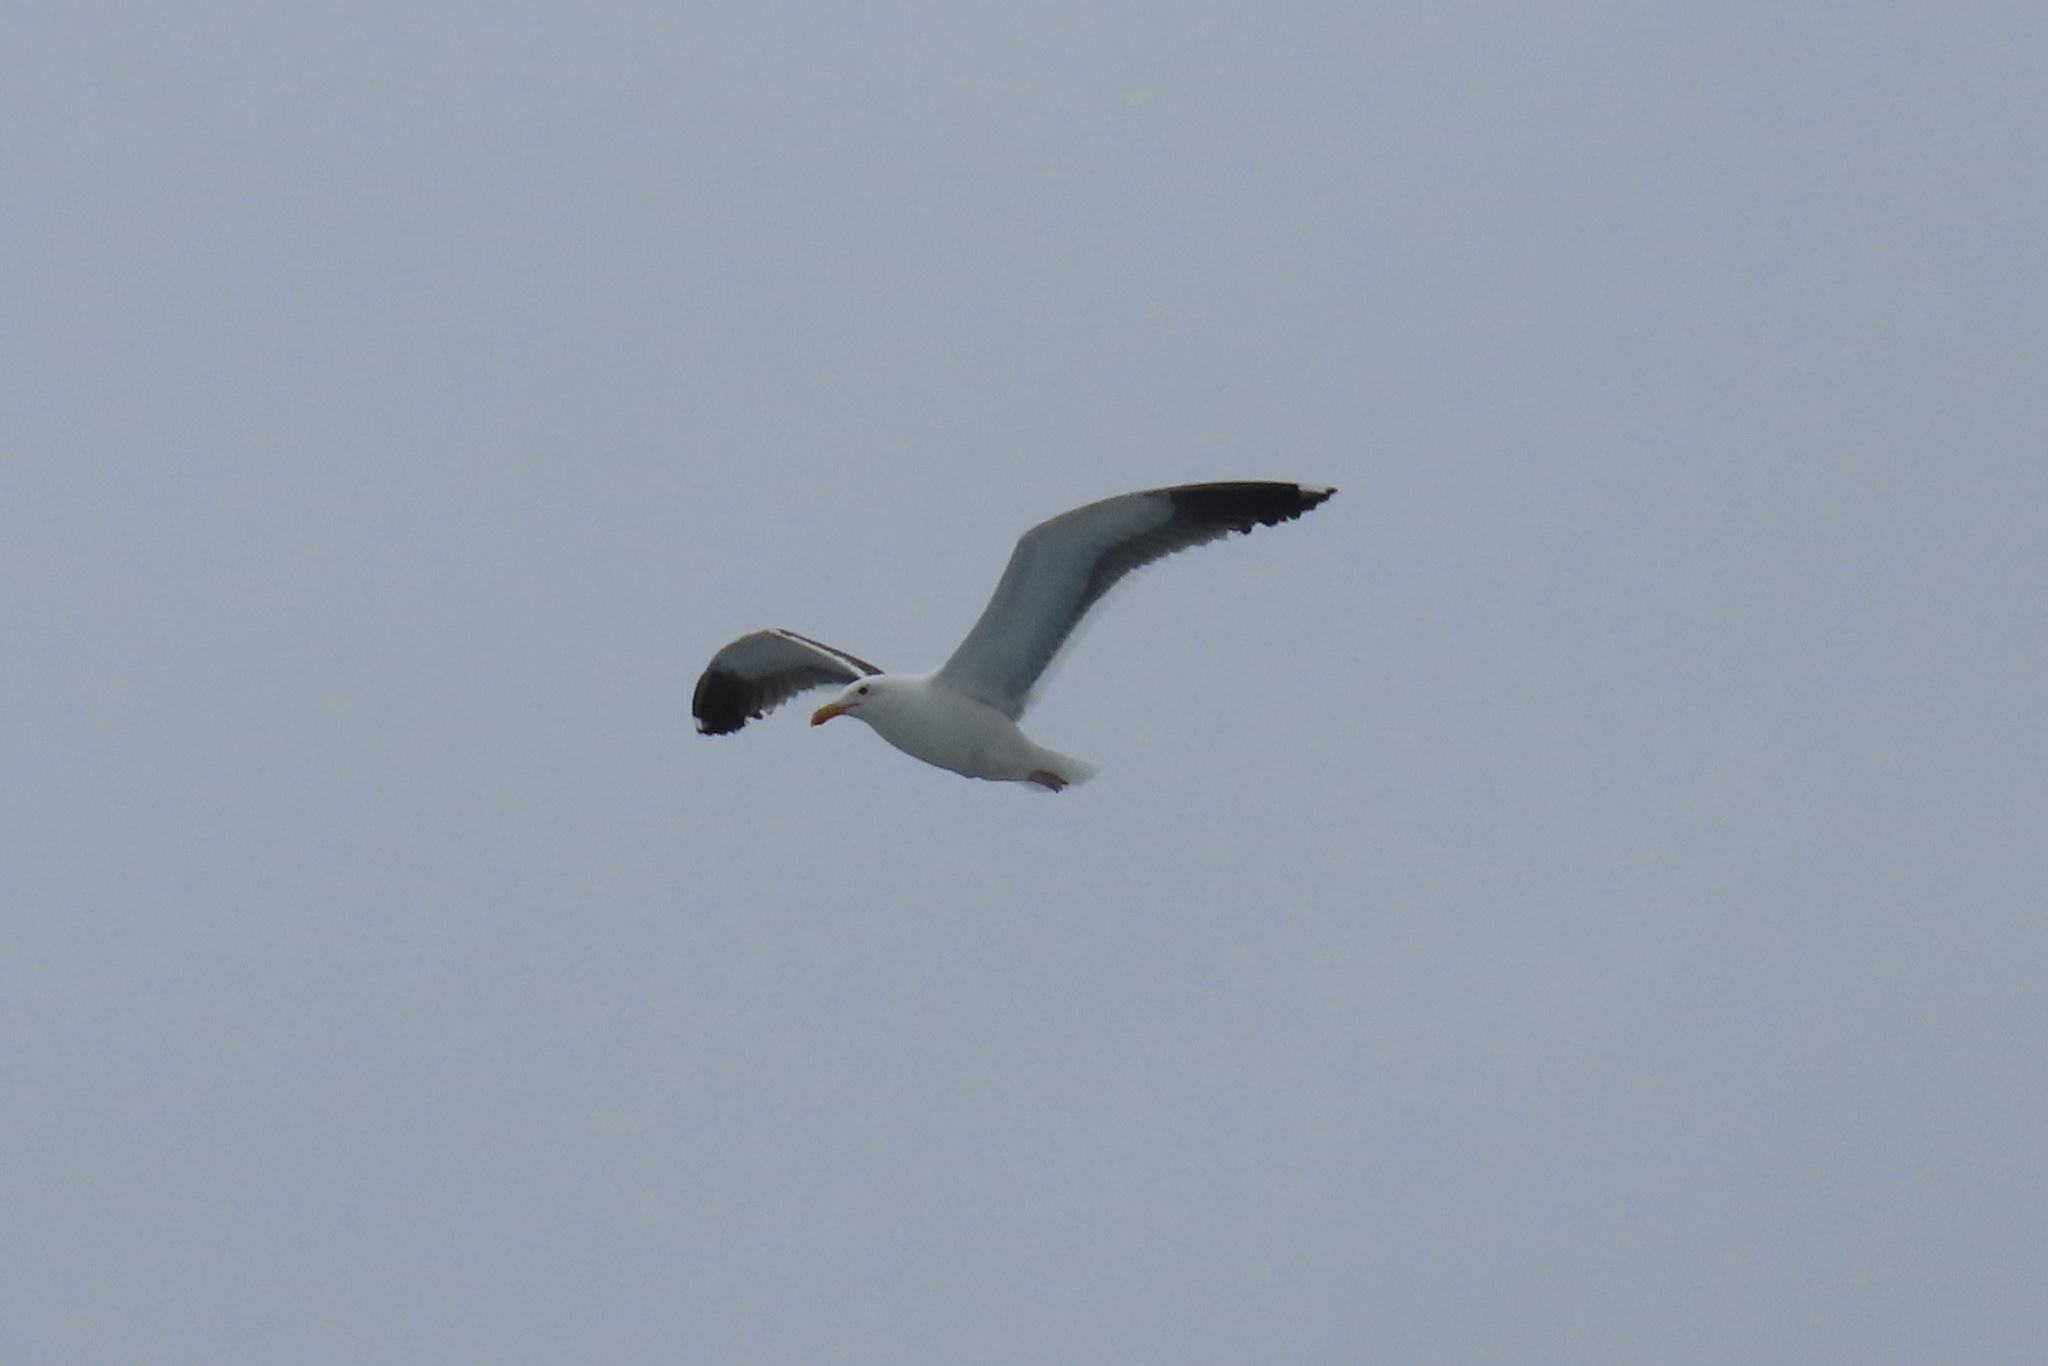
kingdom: Animalia
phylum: Chordata
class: Aves
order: Charadriiformes
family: Laridae
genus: Larus
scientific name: Larus occidentalis
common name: Western gull
